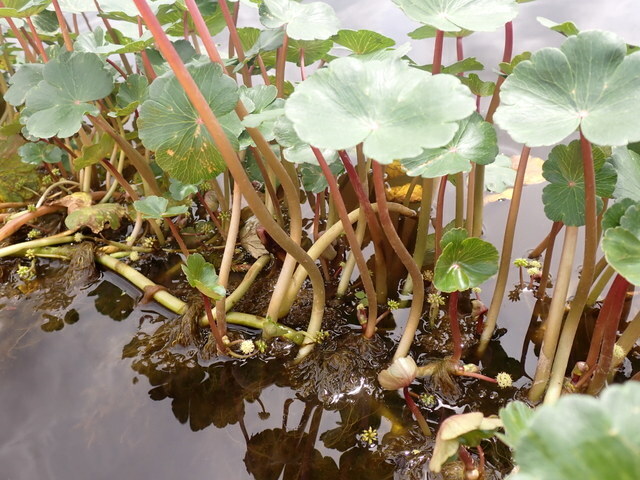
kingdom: Plantae
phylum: Tracheophyta
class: Magnoliopsida
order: Apiales
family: Araliaceae
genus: Hydrocotyle
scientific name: Hydrocotyle ranunculoides
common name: Floating pennywort
